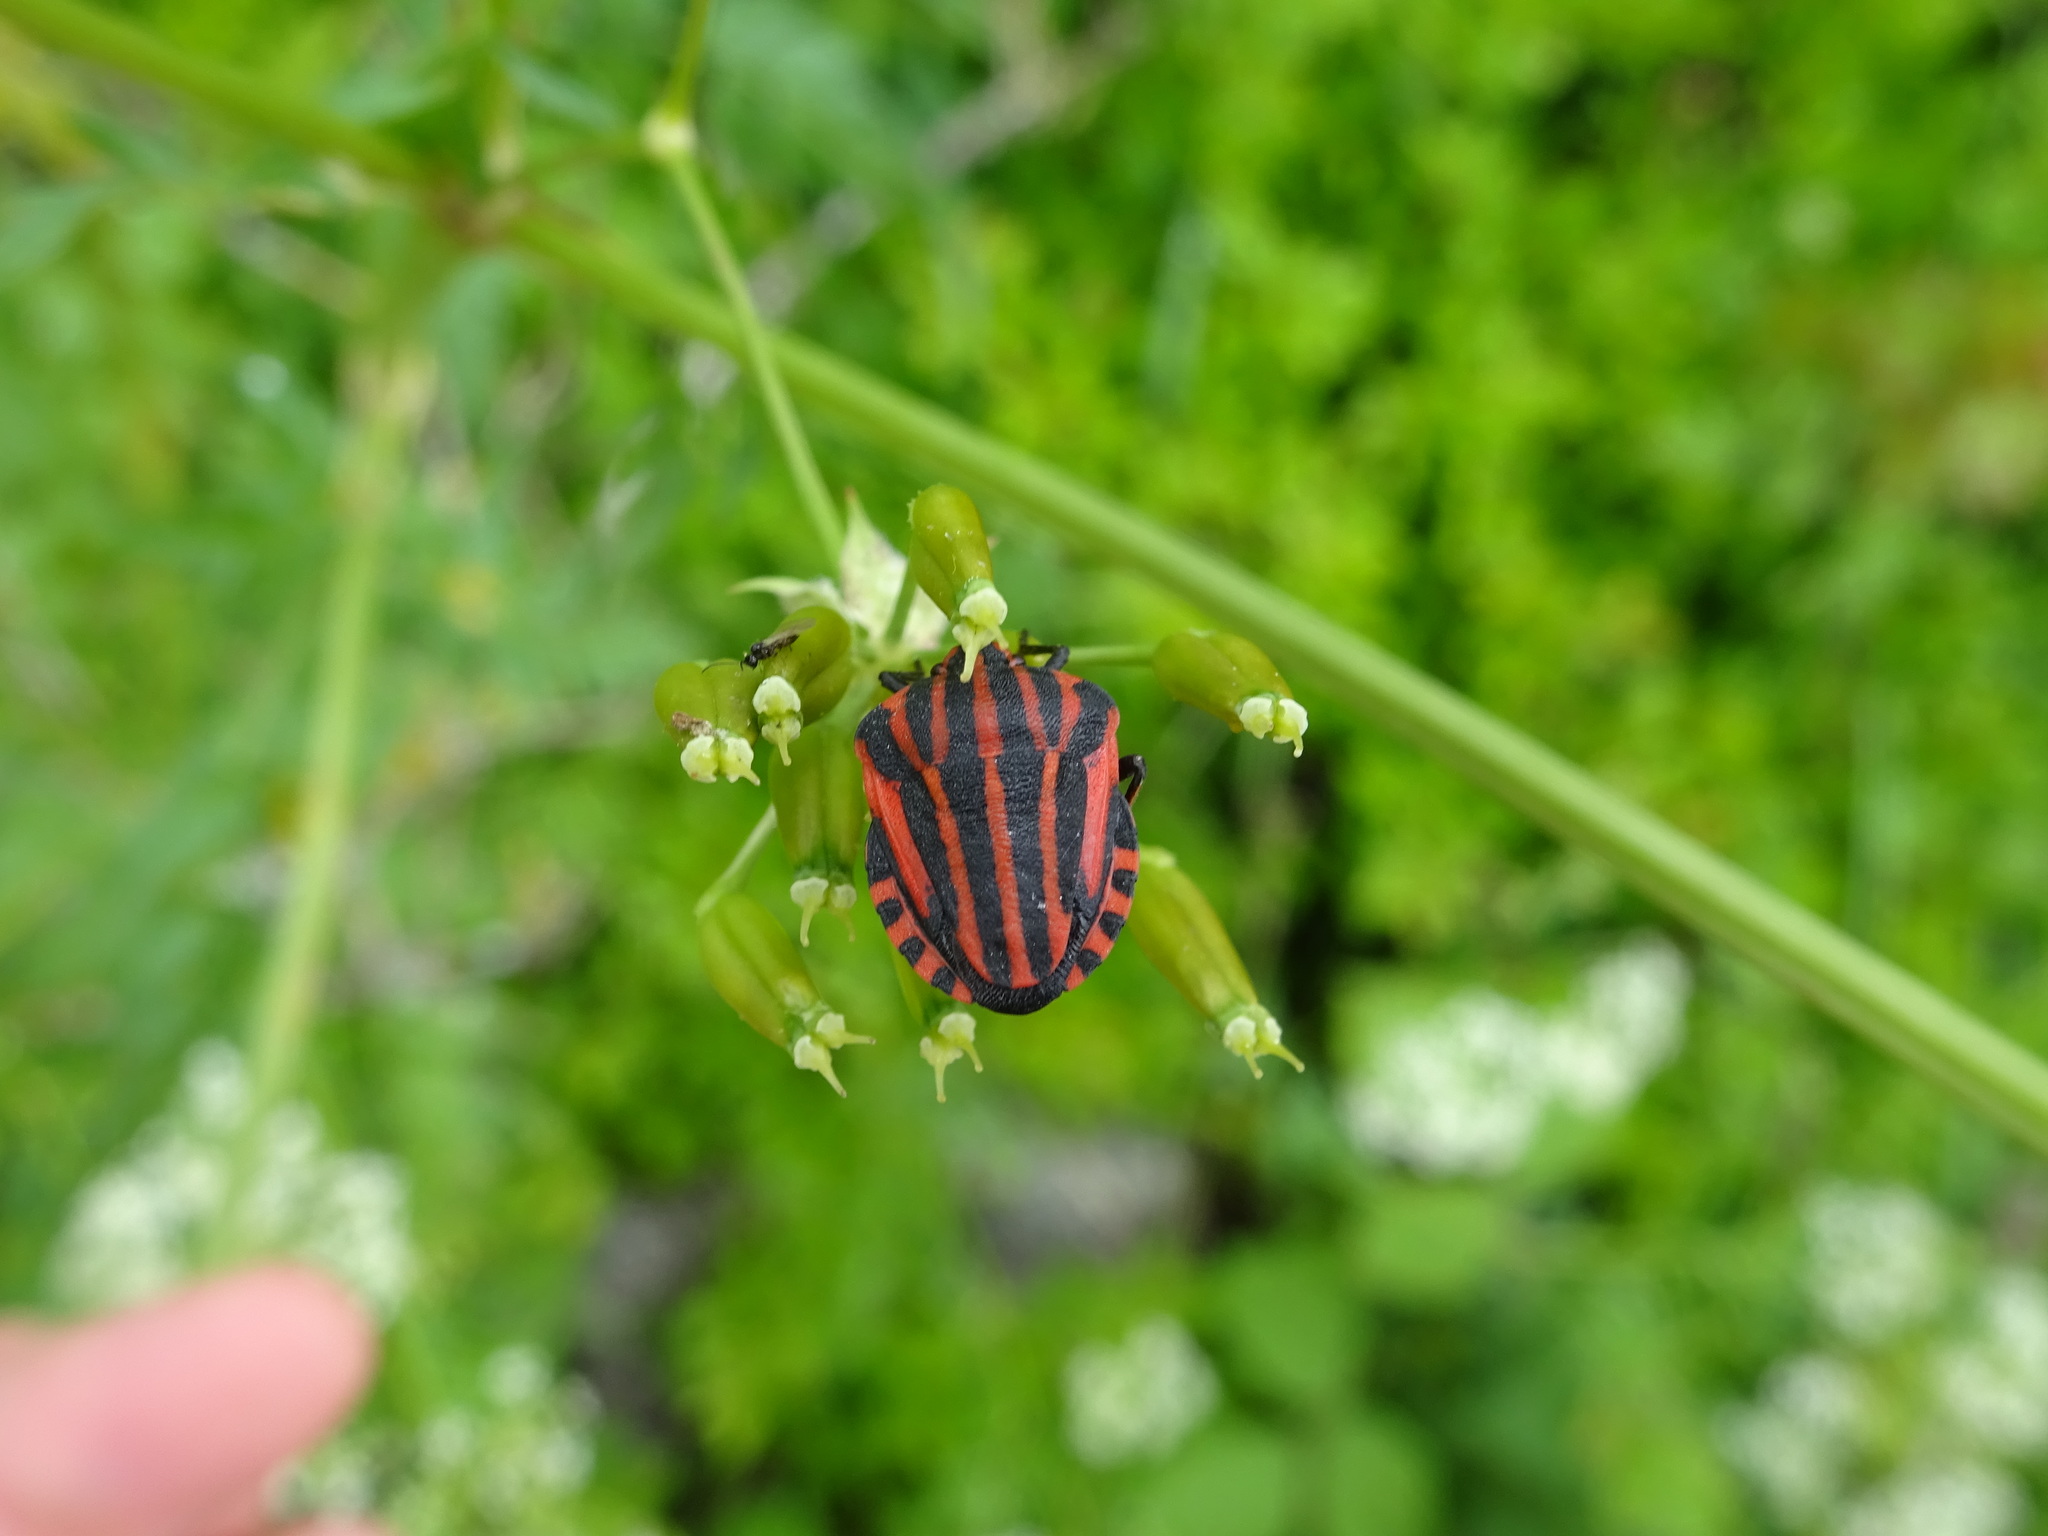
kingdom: Animalia
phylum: Arthropoda
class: Insecta
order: Hemiptera
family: Pentatomidae
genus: Graphosoma
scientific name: Graphosoma italicum
